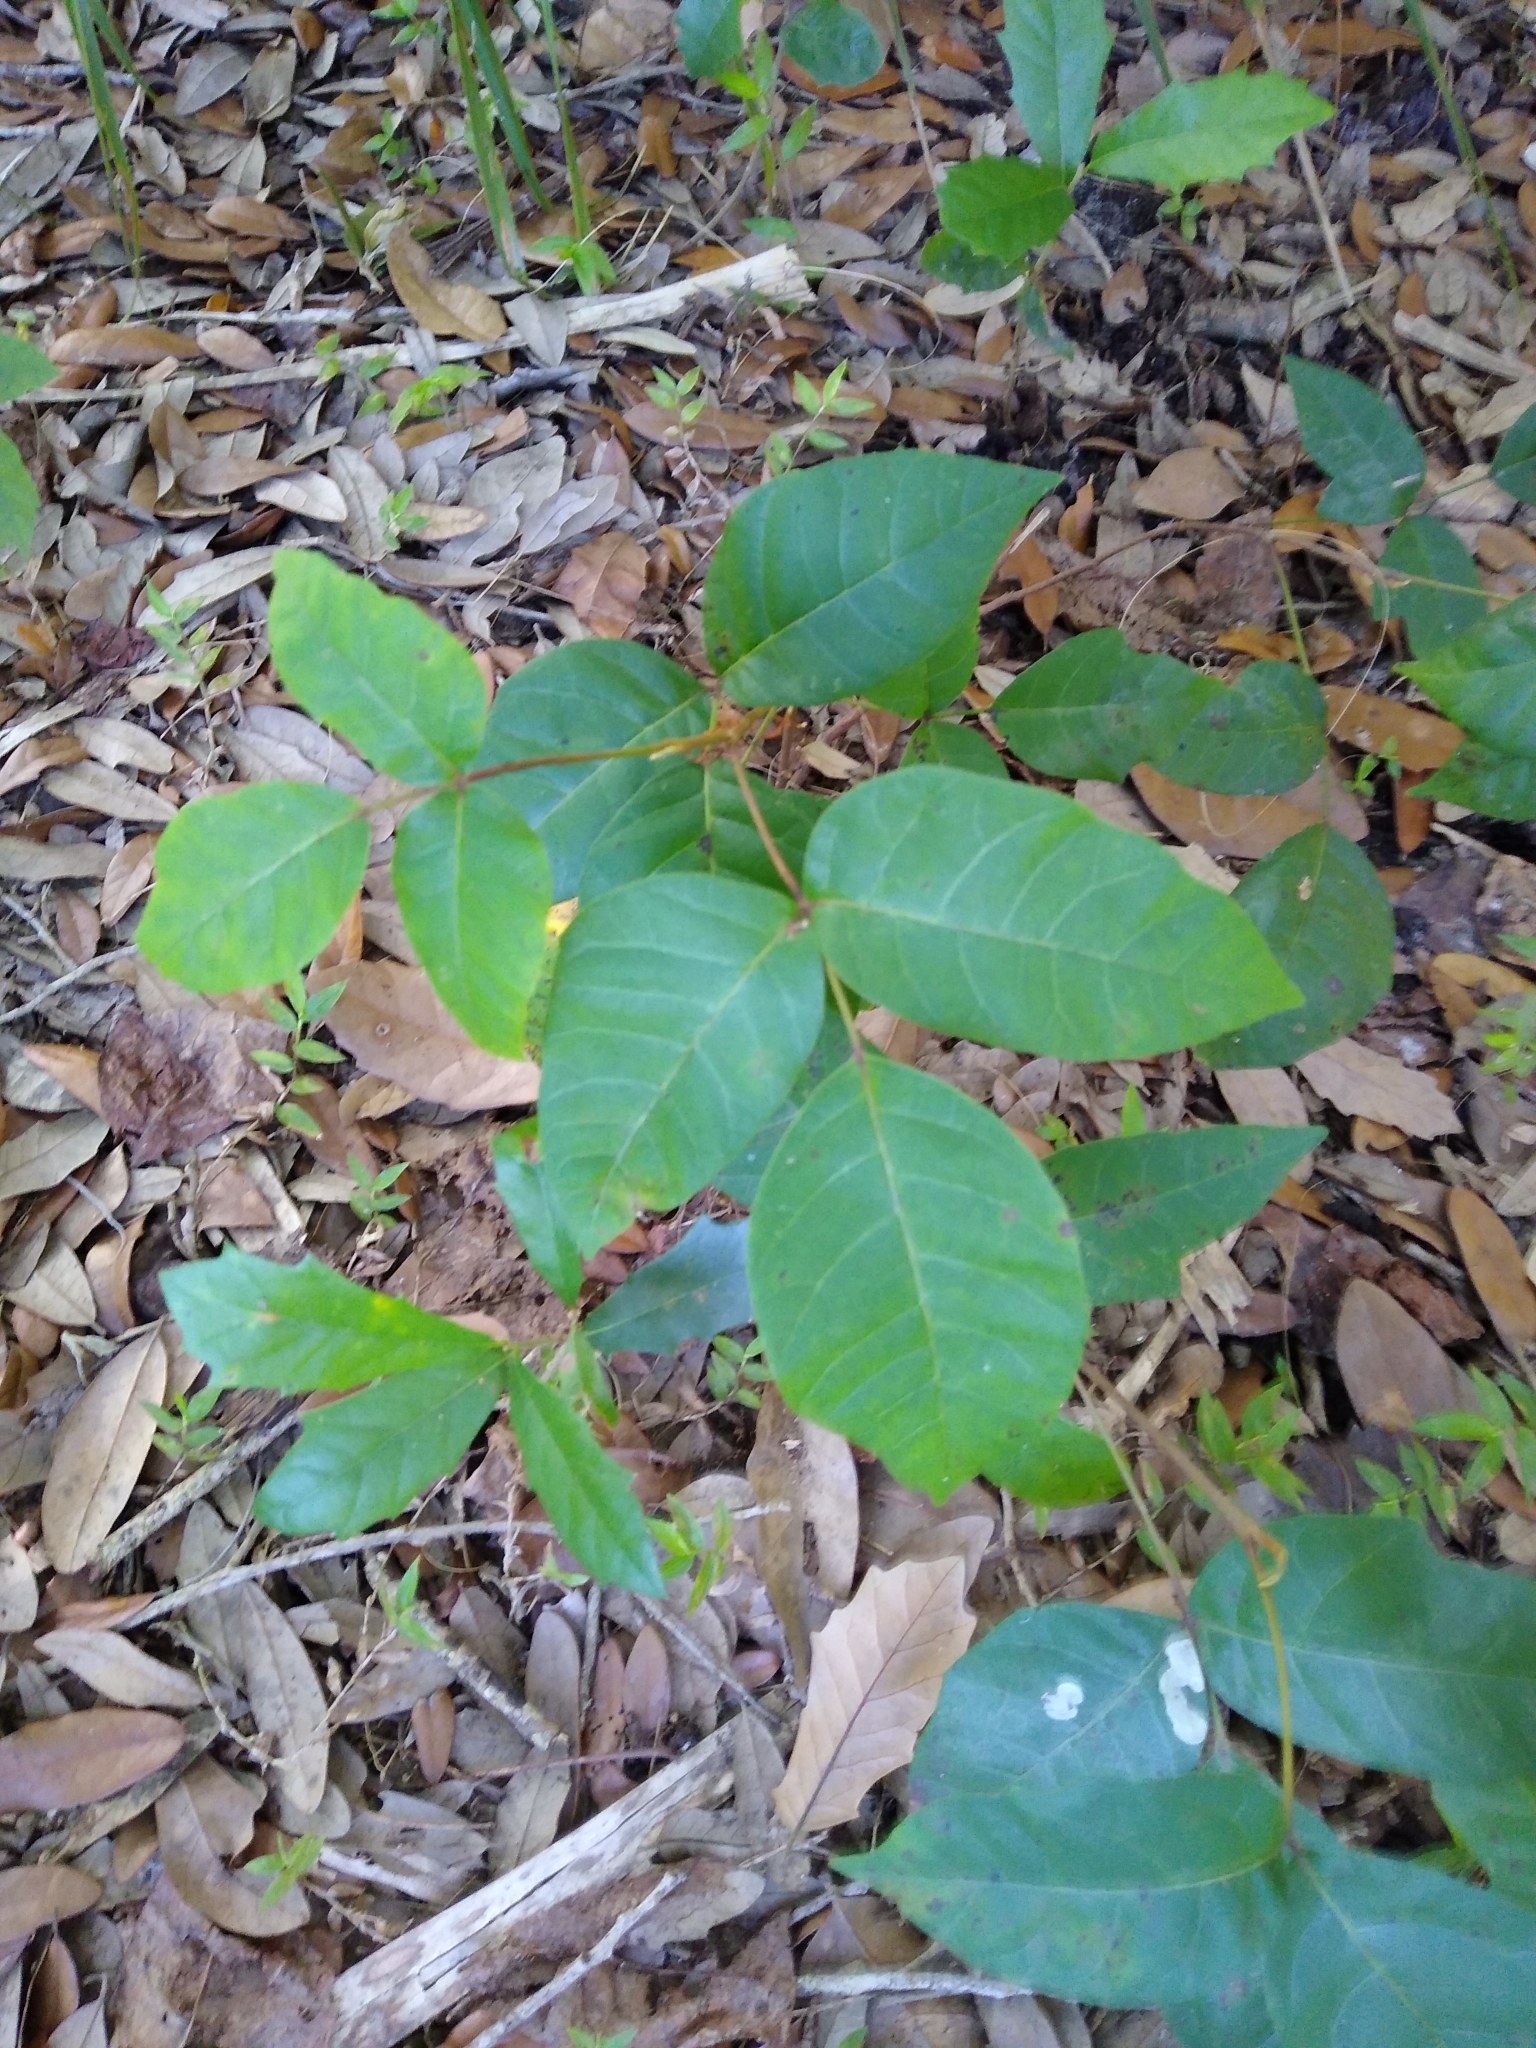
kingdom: Plantae
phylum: Tracheophyta
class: Magnoliopsida
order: Sapindales
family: Anacardiaceae
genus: Toxicodendron
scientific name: Toxicodendron radicans
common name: Poison ivy
